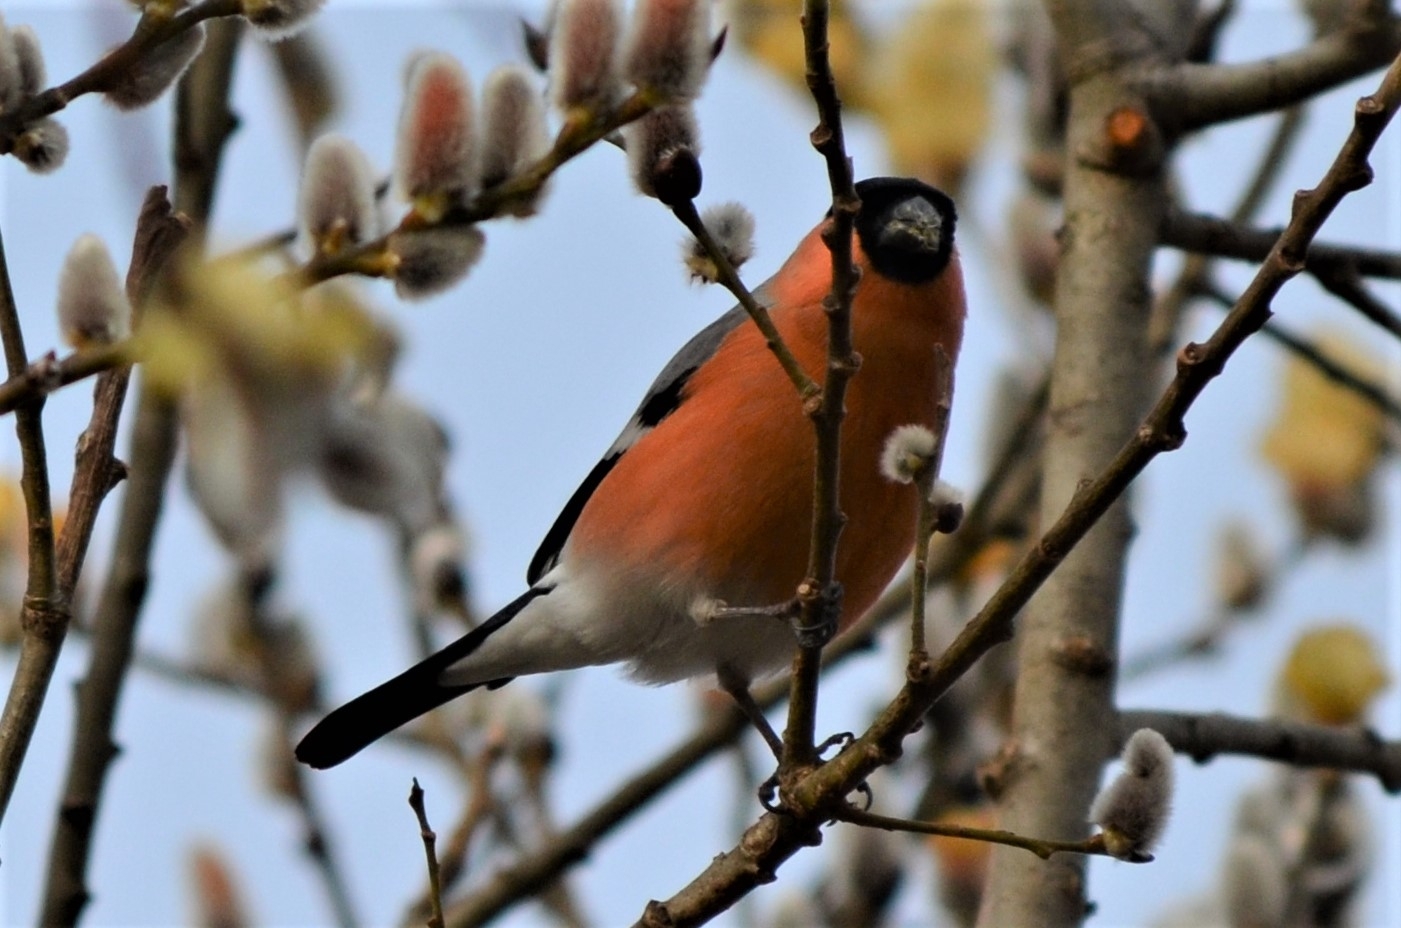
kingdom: Animalia
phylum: Chordata
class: Aves
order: Passeriformes
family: Fringillidae
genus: Pyrrhula
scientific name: Pyrrhula pyrrhula
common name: Eurasian bullfinch
